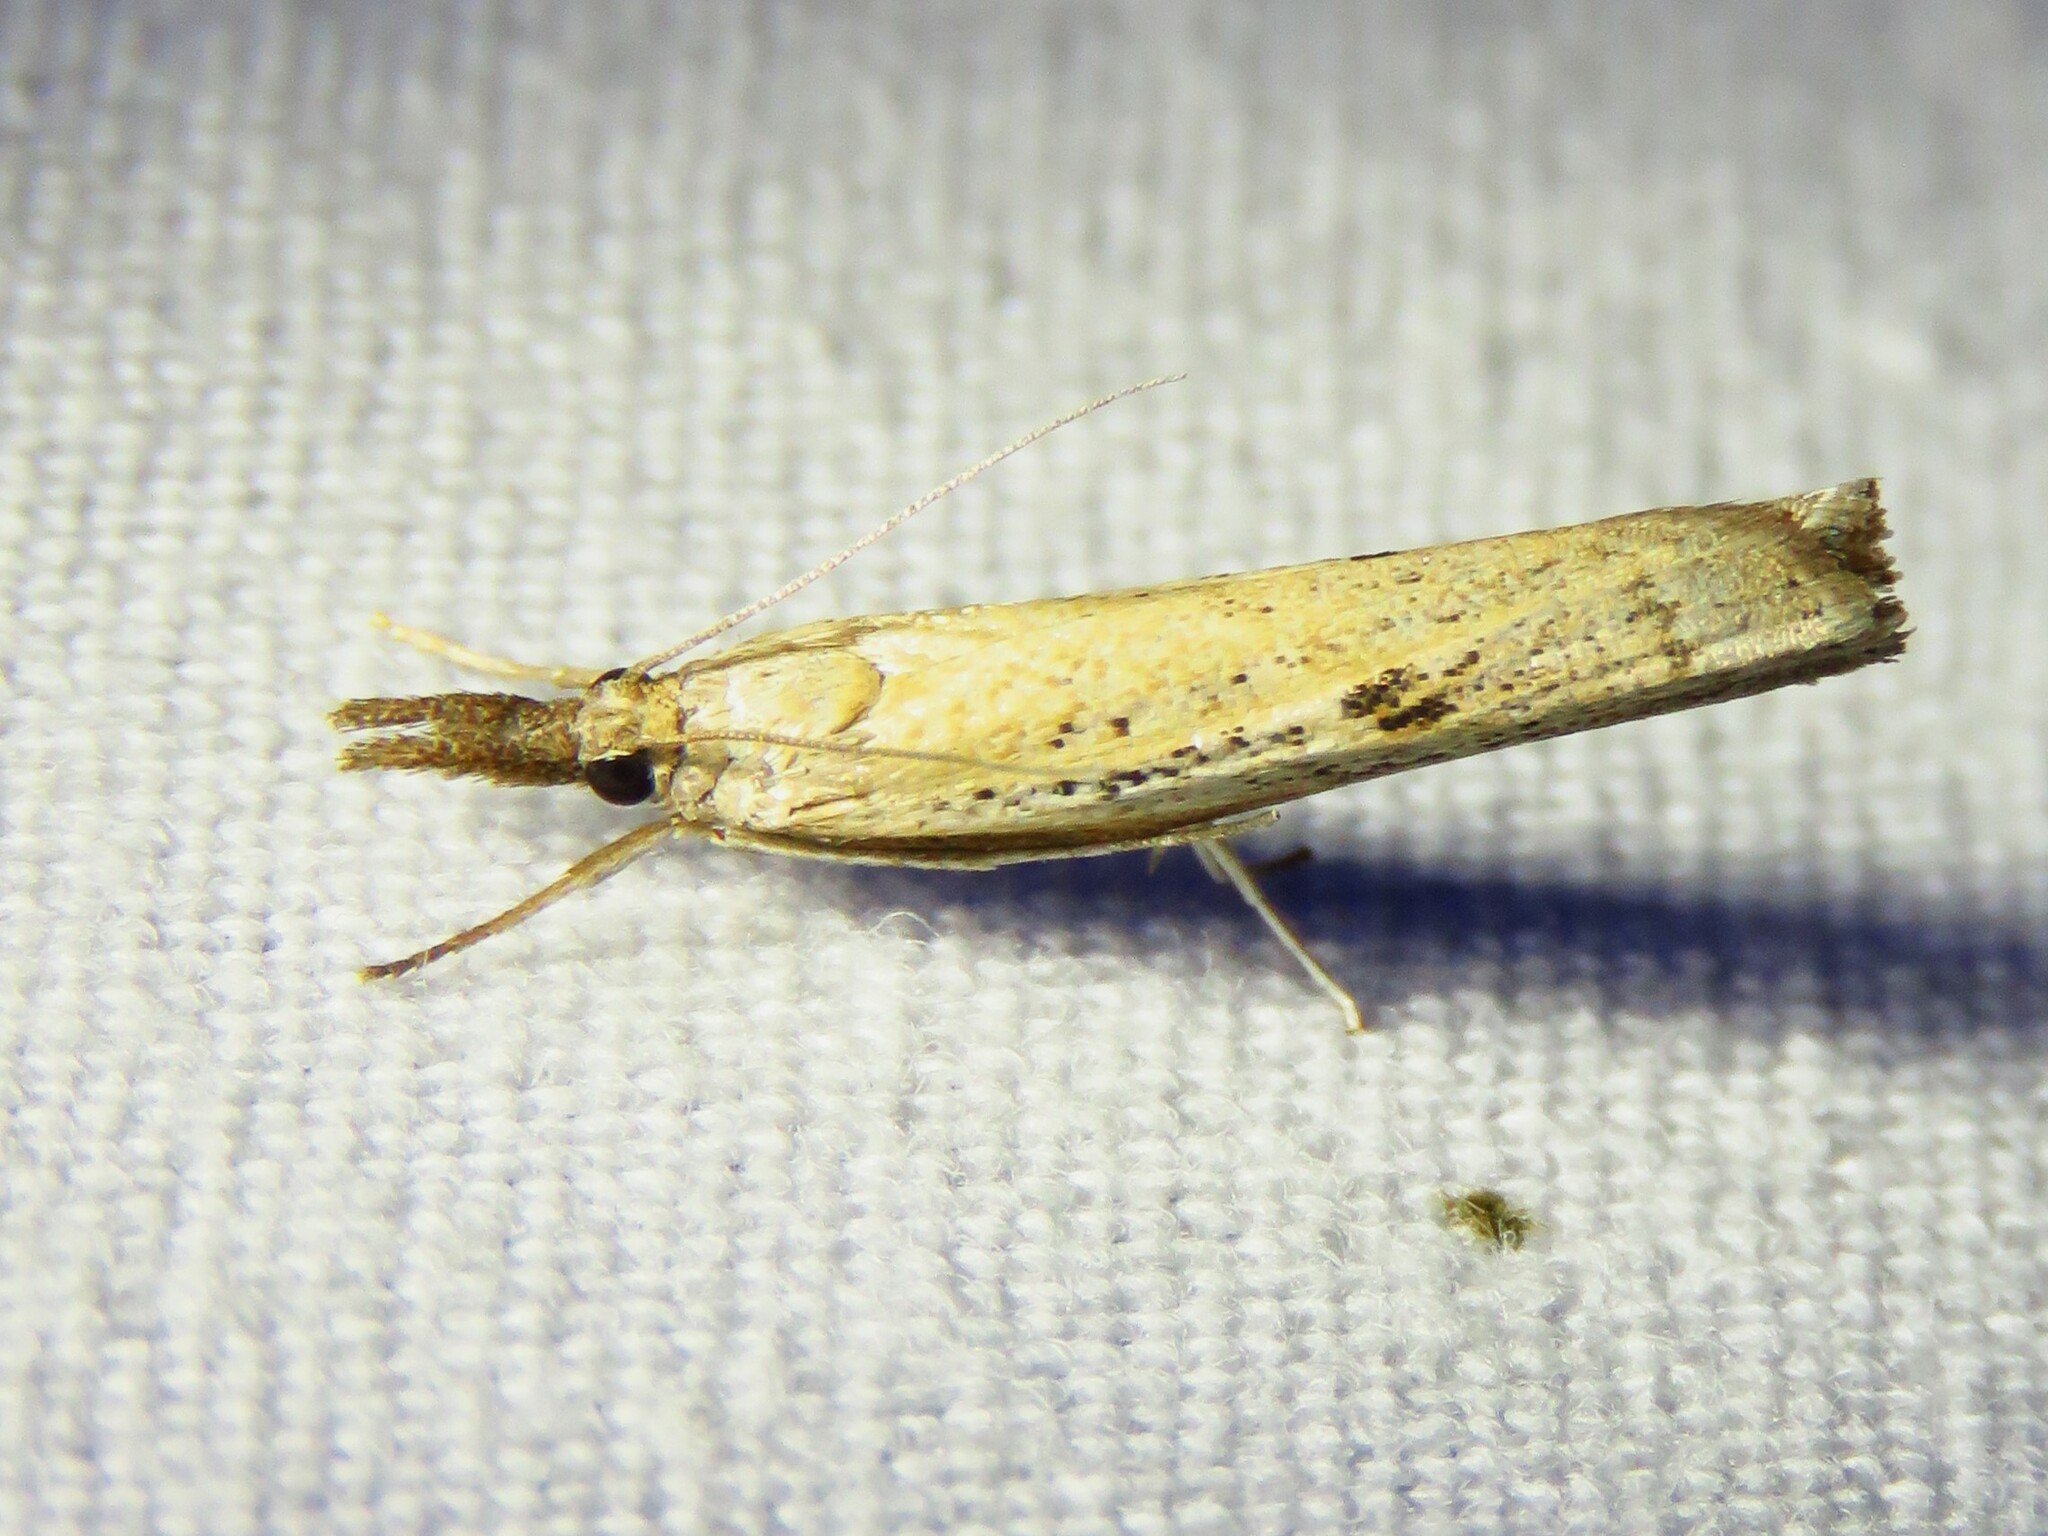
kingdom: Animalia
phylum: Arthropoda
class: Insecta
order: Lepidoptera
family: Crambidae
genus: Fissicrambus
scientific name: Fissicrambus mutabilis
